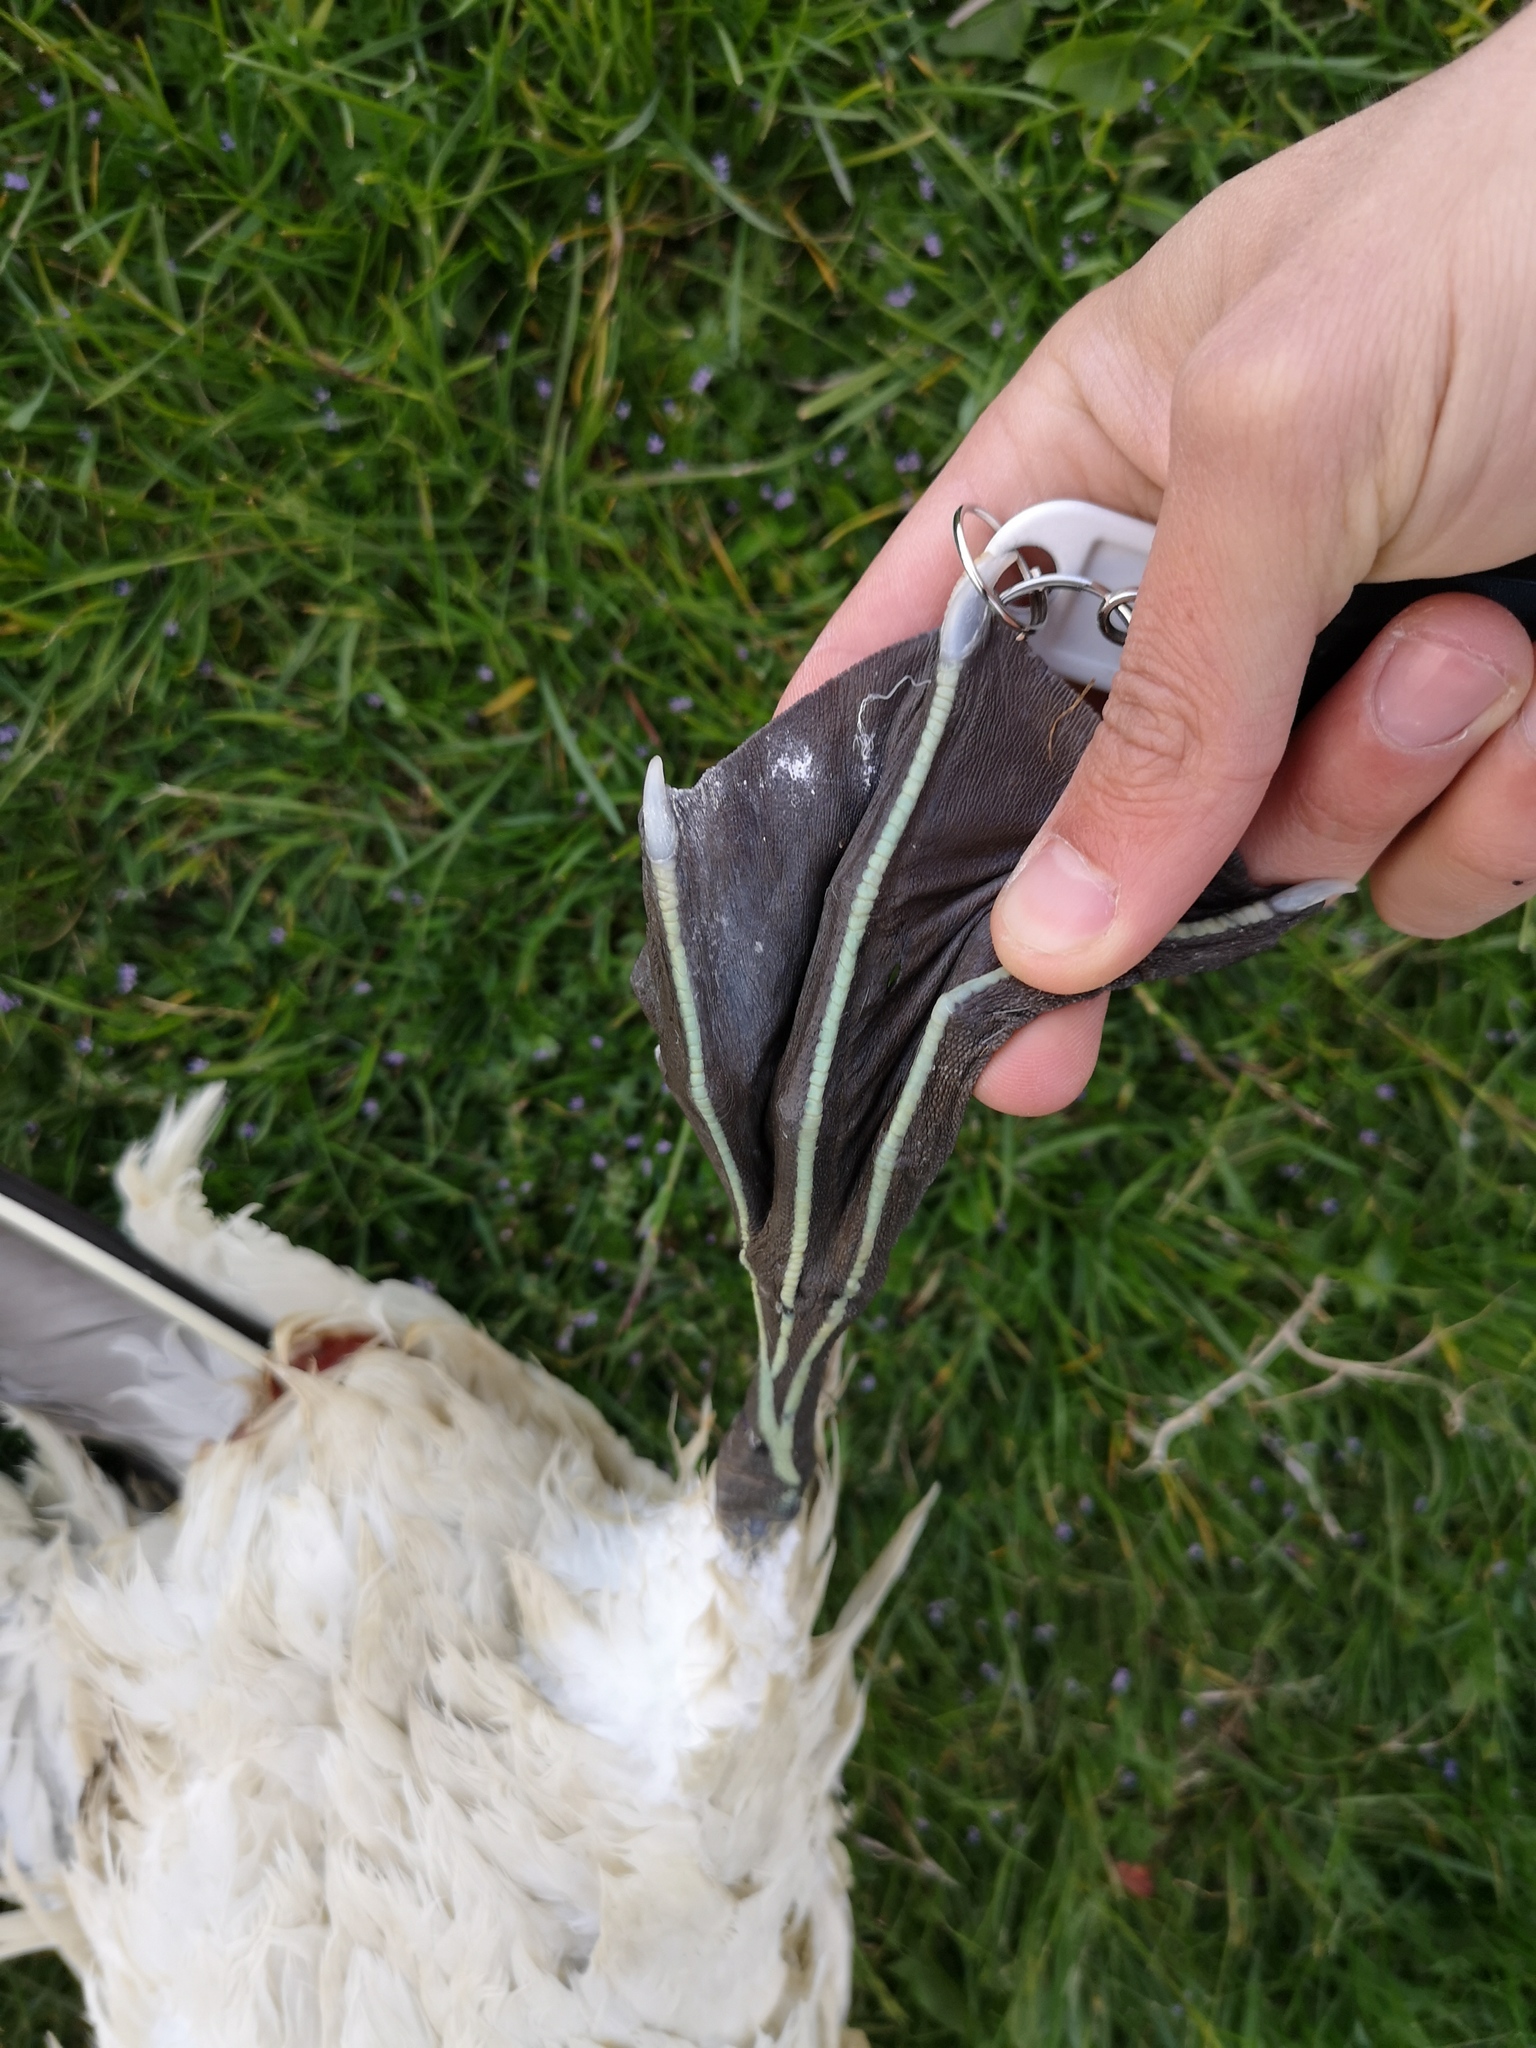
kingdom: Animalia
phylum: Chordata
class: Aves
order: Suliformes
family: Sulidae
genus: Morus
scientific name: Morus bassanus
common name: Northern gannet
